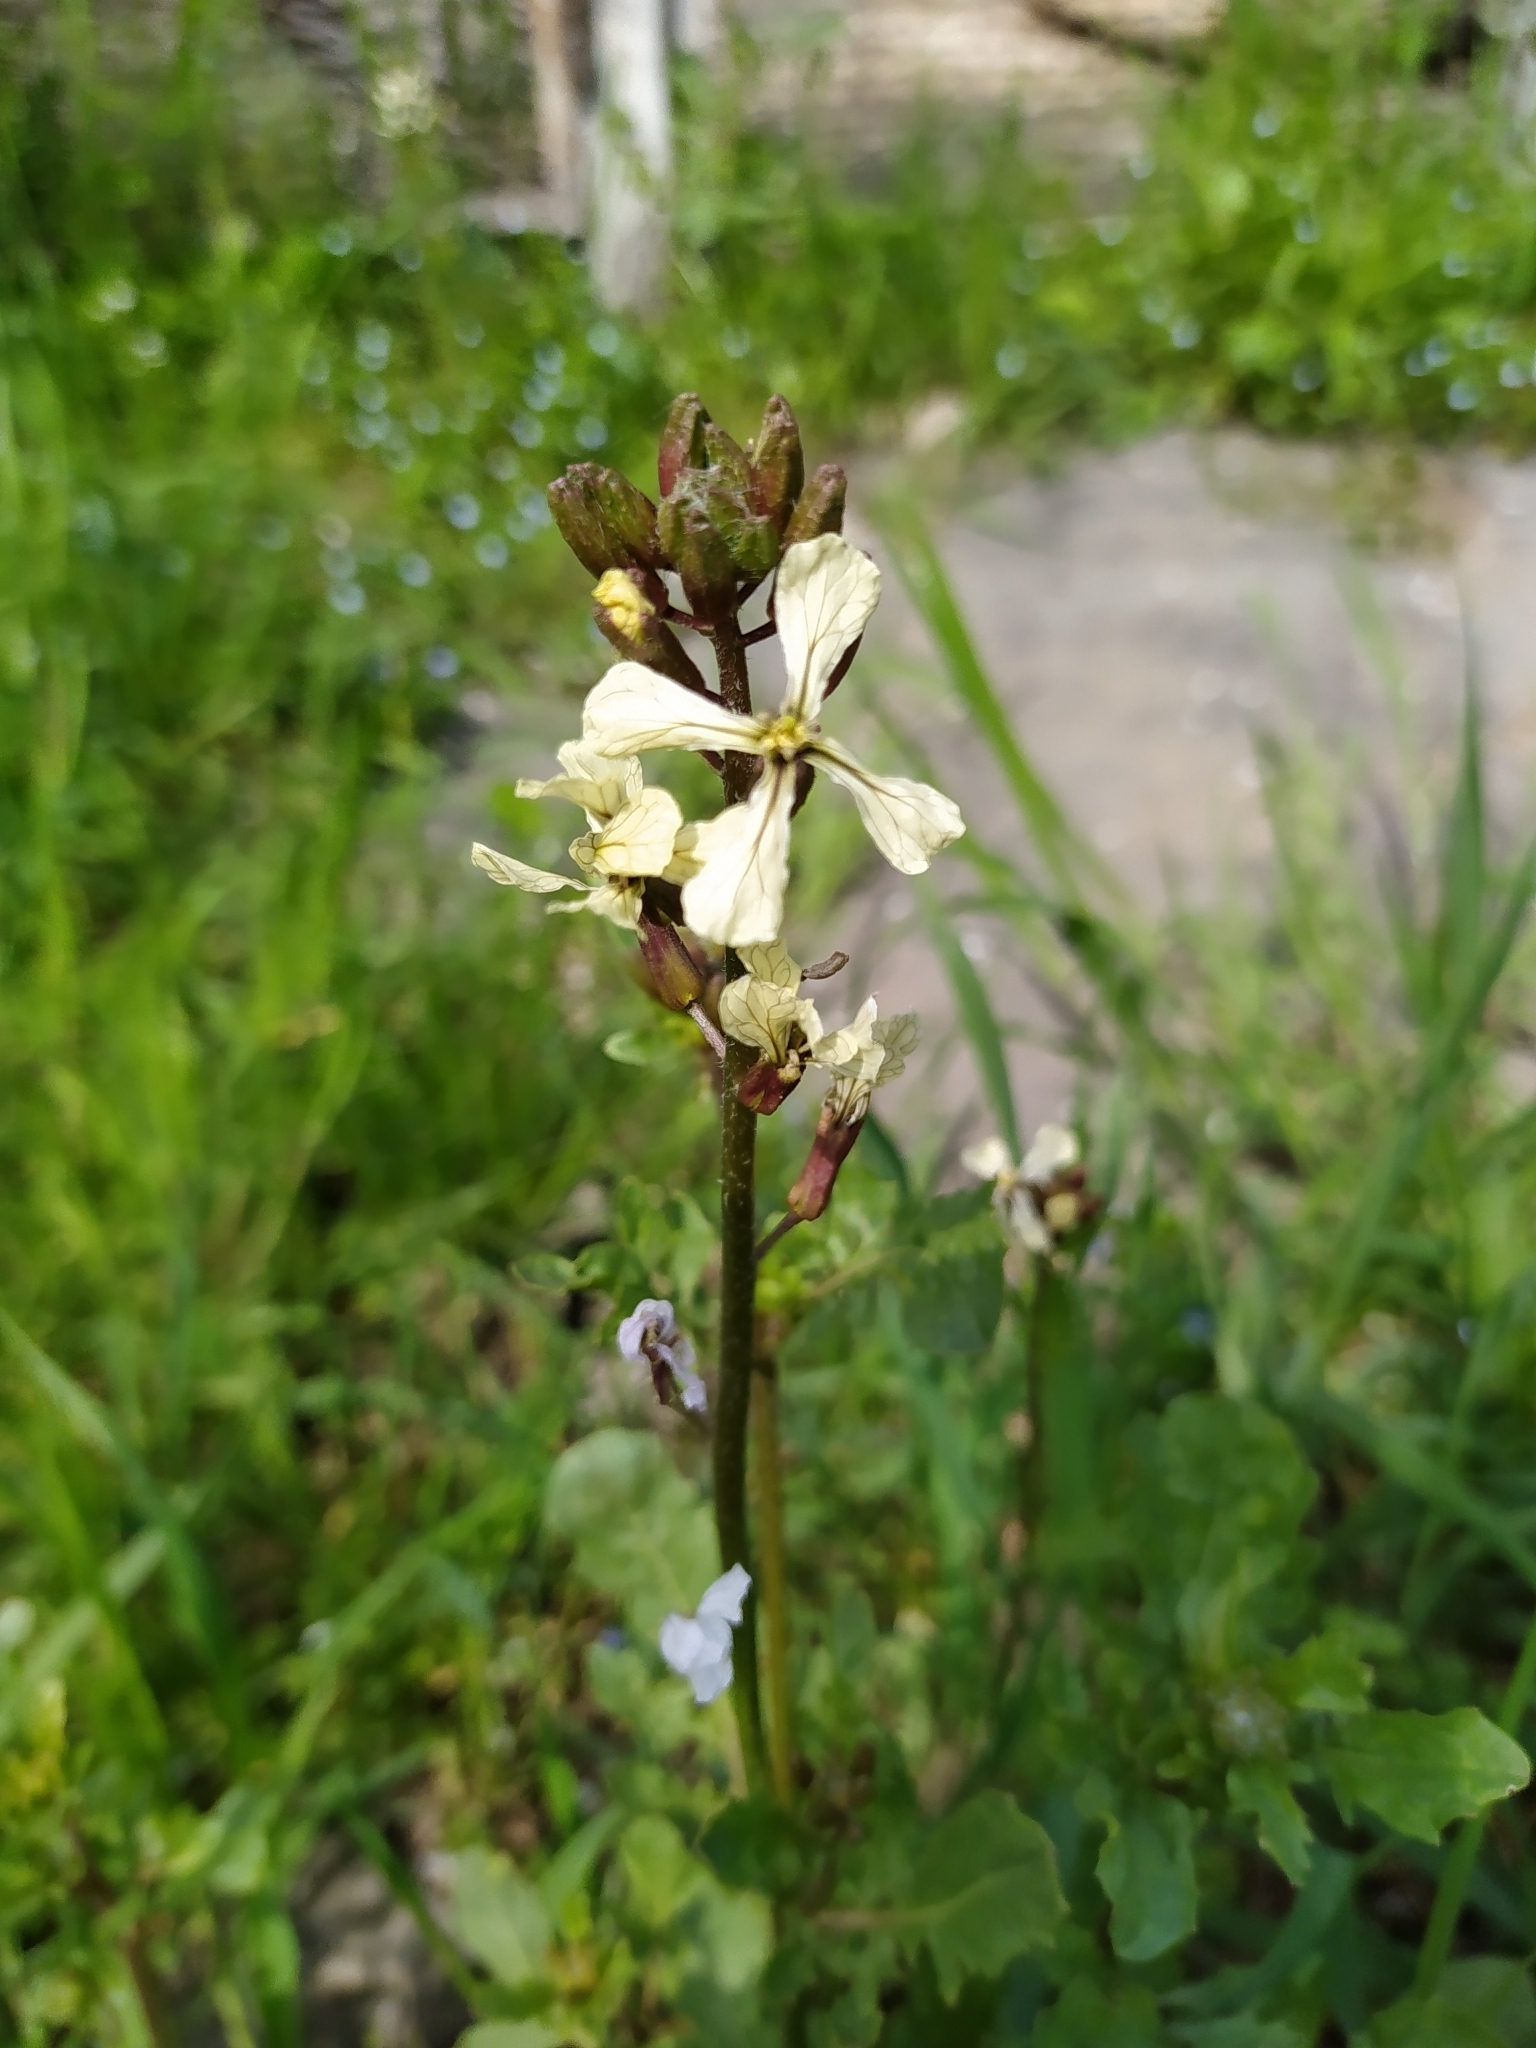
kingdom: Plantae
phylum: Tracheophyta
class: Magnoliopsida
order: Brassicales
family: Brassicaceae
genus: Eruca
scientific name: Eruca vesicaria
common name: Garden rocket
